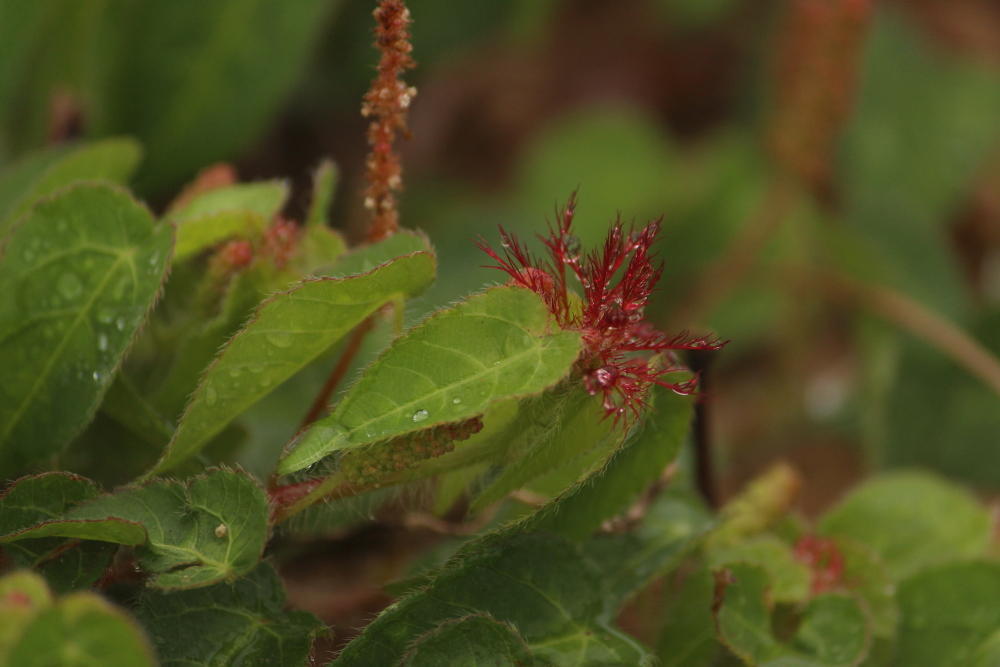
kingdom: Plantae
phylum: Tracheophyta
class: Magnoliopsida
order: Malpighiales
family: Euphorbiaceae
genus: Acalypha
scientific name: Acalypha petiolaris
